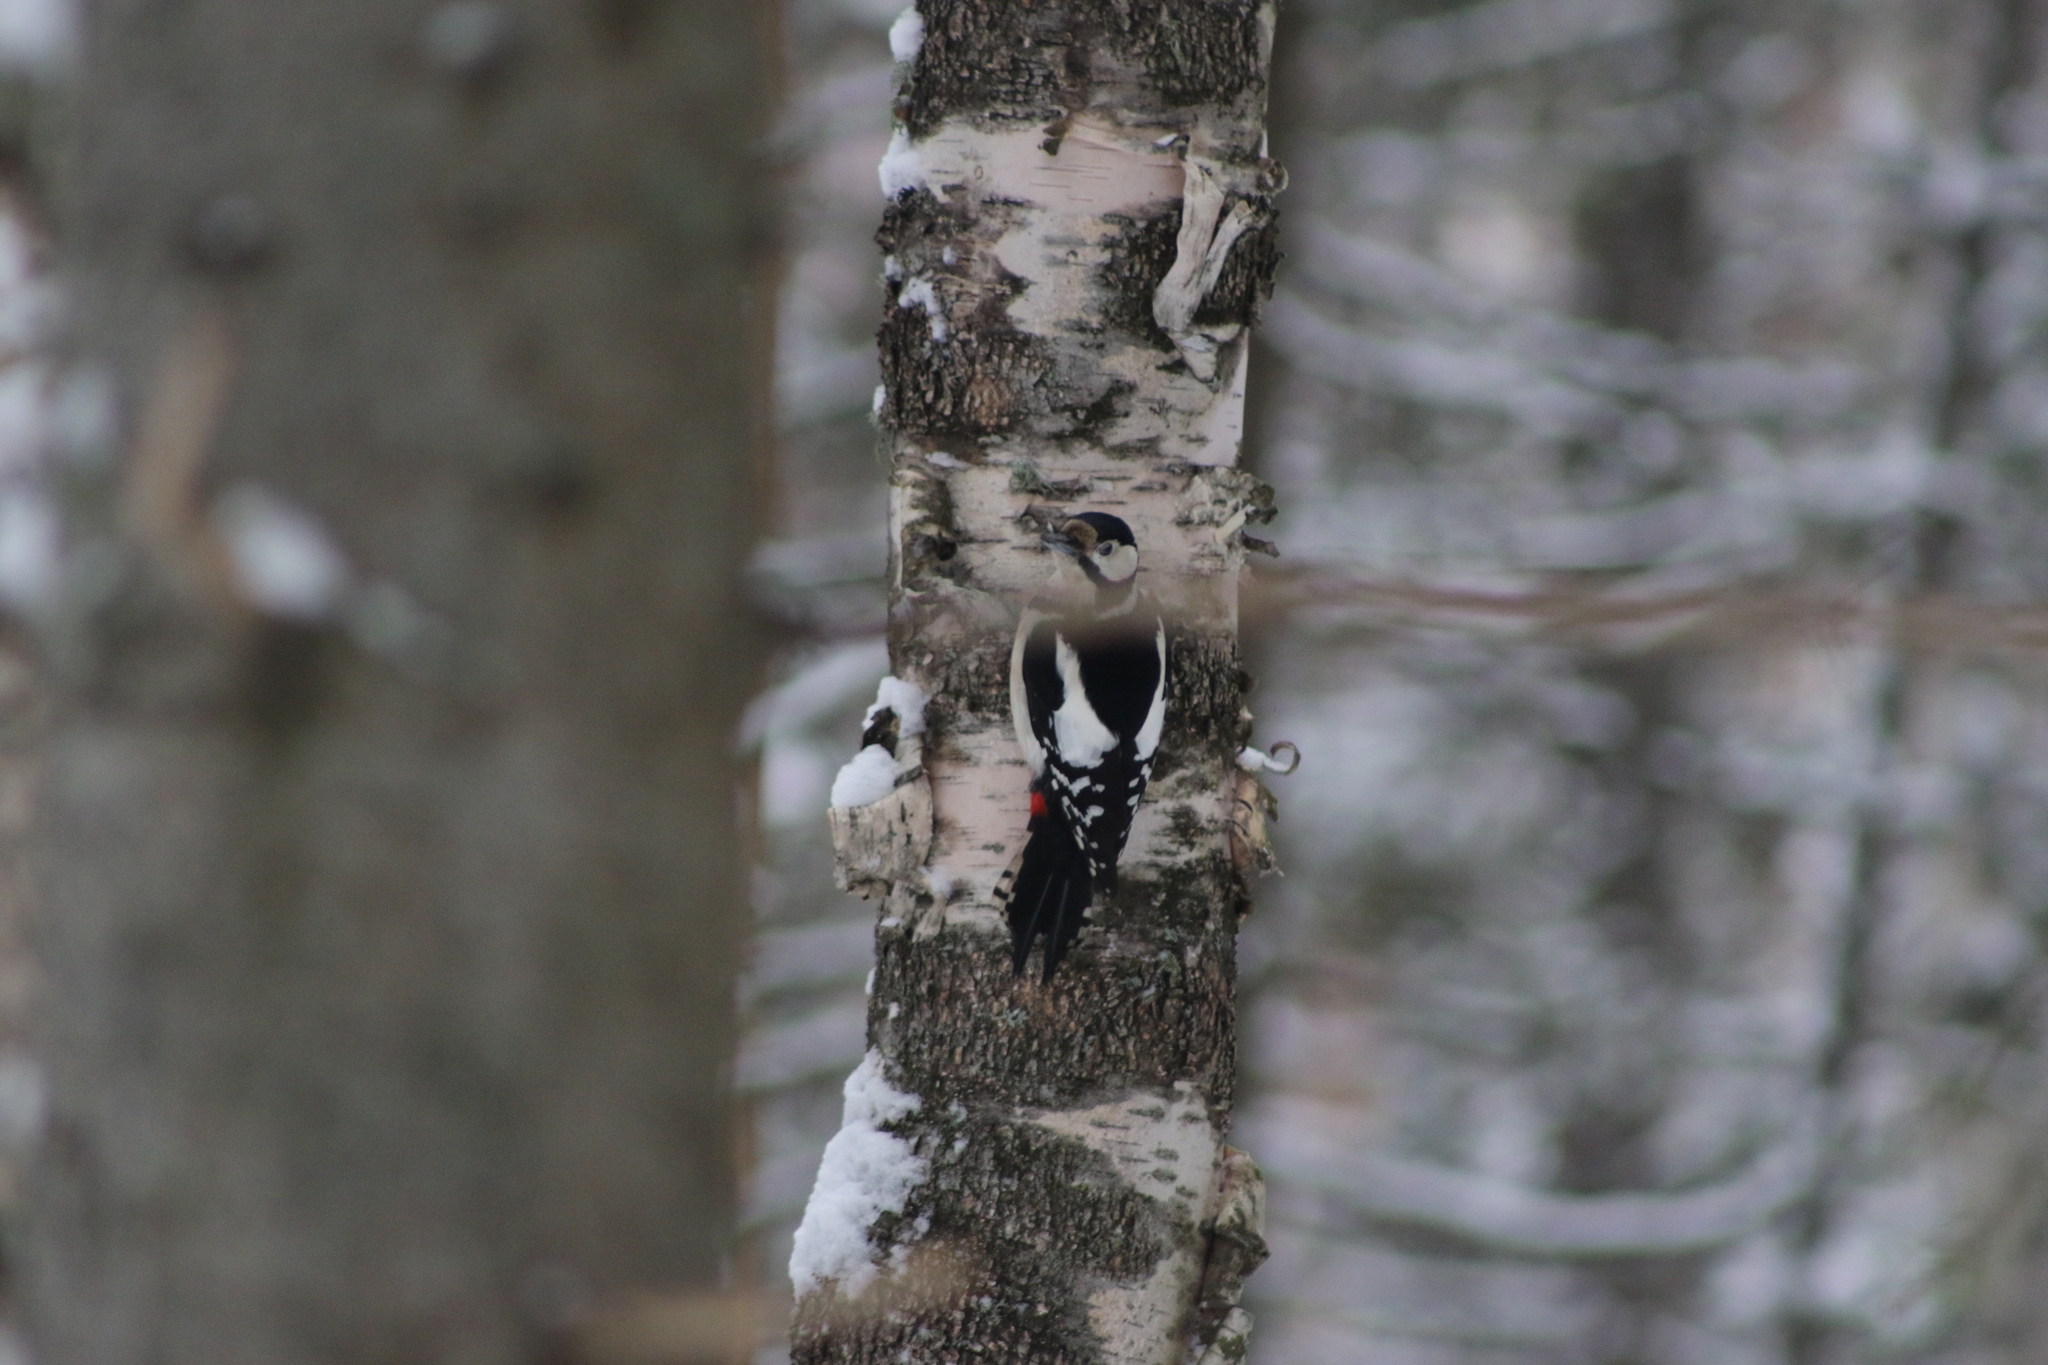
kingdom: Animalia
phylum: Chordata
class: Aves
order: Piciformes
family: Picidae
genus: Dendrocopos
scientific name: Dendrocopos major
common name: Great spotted woodpecker
